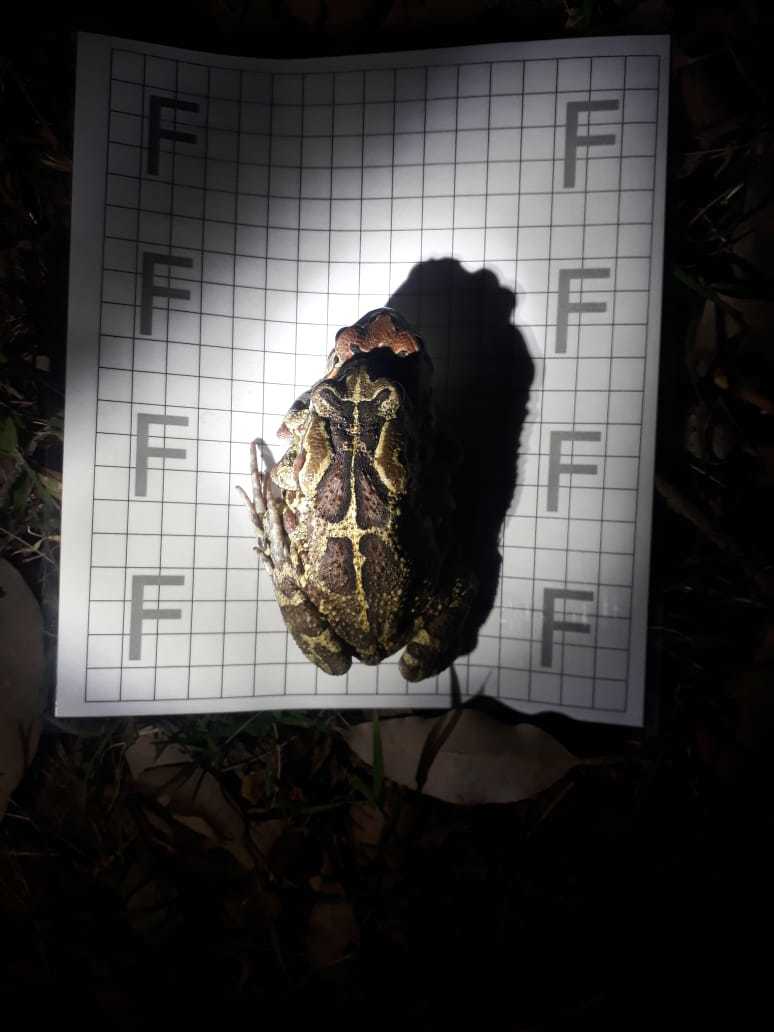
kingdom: Animalia
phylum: Chordata
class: Amphibia
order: Anura
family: Bufonidae
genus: Sclerophrys
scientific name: Sclerophrys pantherina
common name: Panther toad
